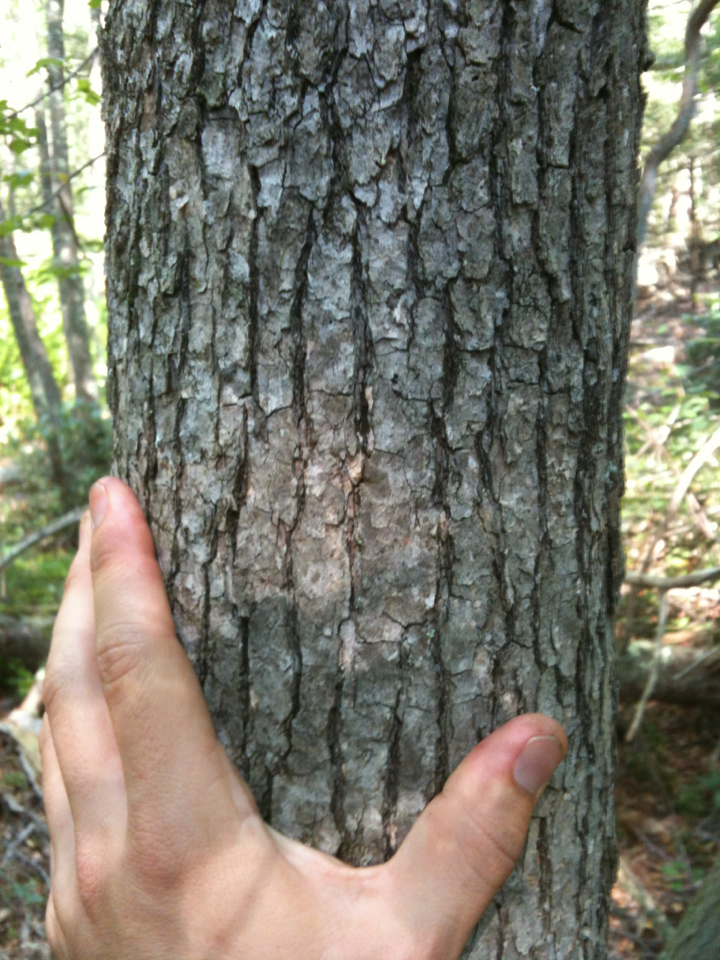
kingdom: Plantae
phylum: Tracheophyta
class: Magnoliopsida
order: Cornales
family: Nyssaceae
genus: Nyssa
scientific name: Nyssa sylvatica
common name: Black tupelo
